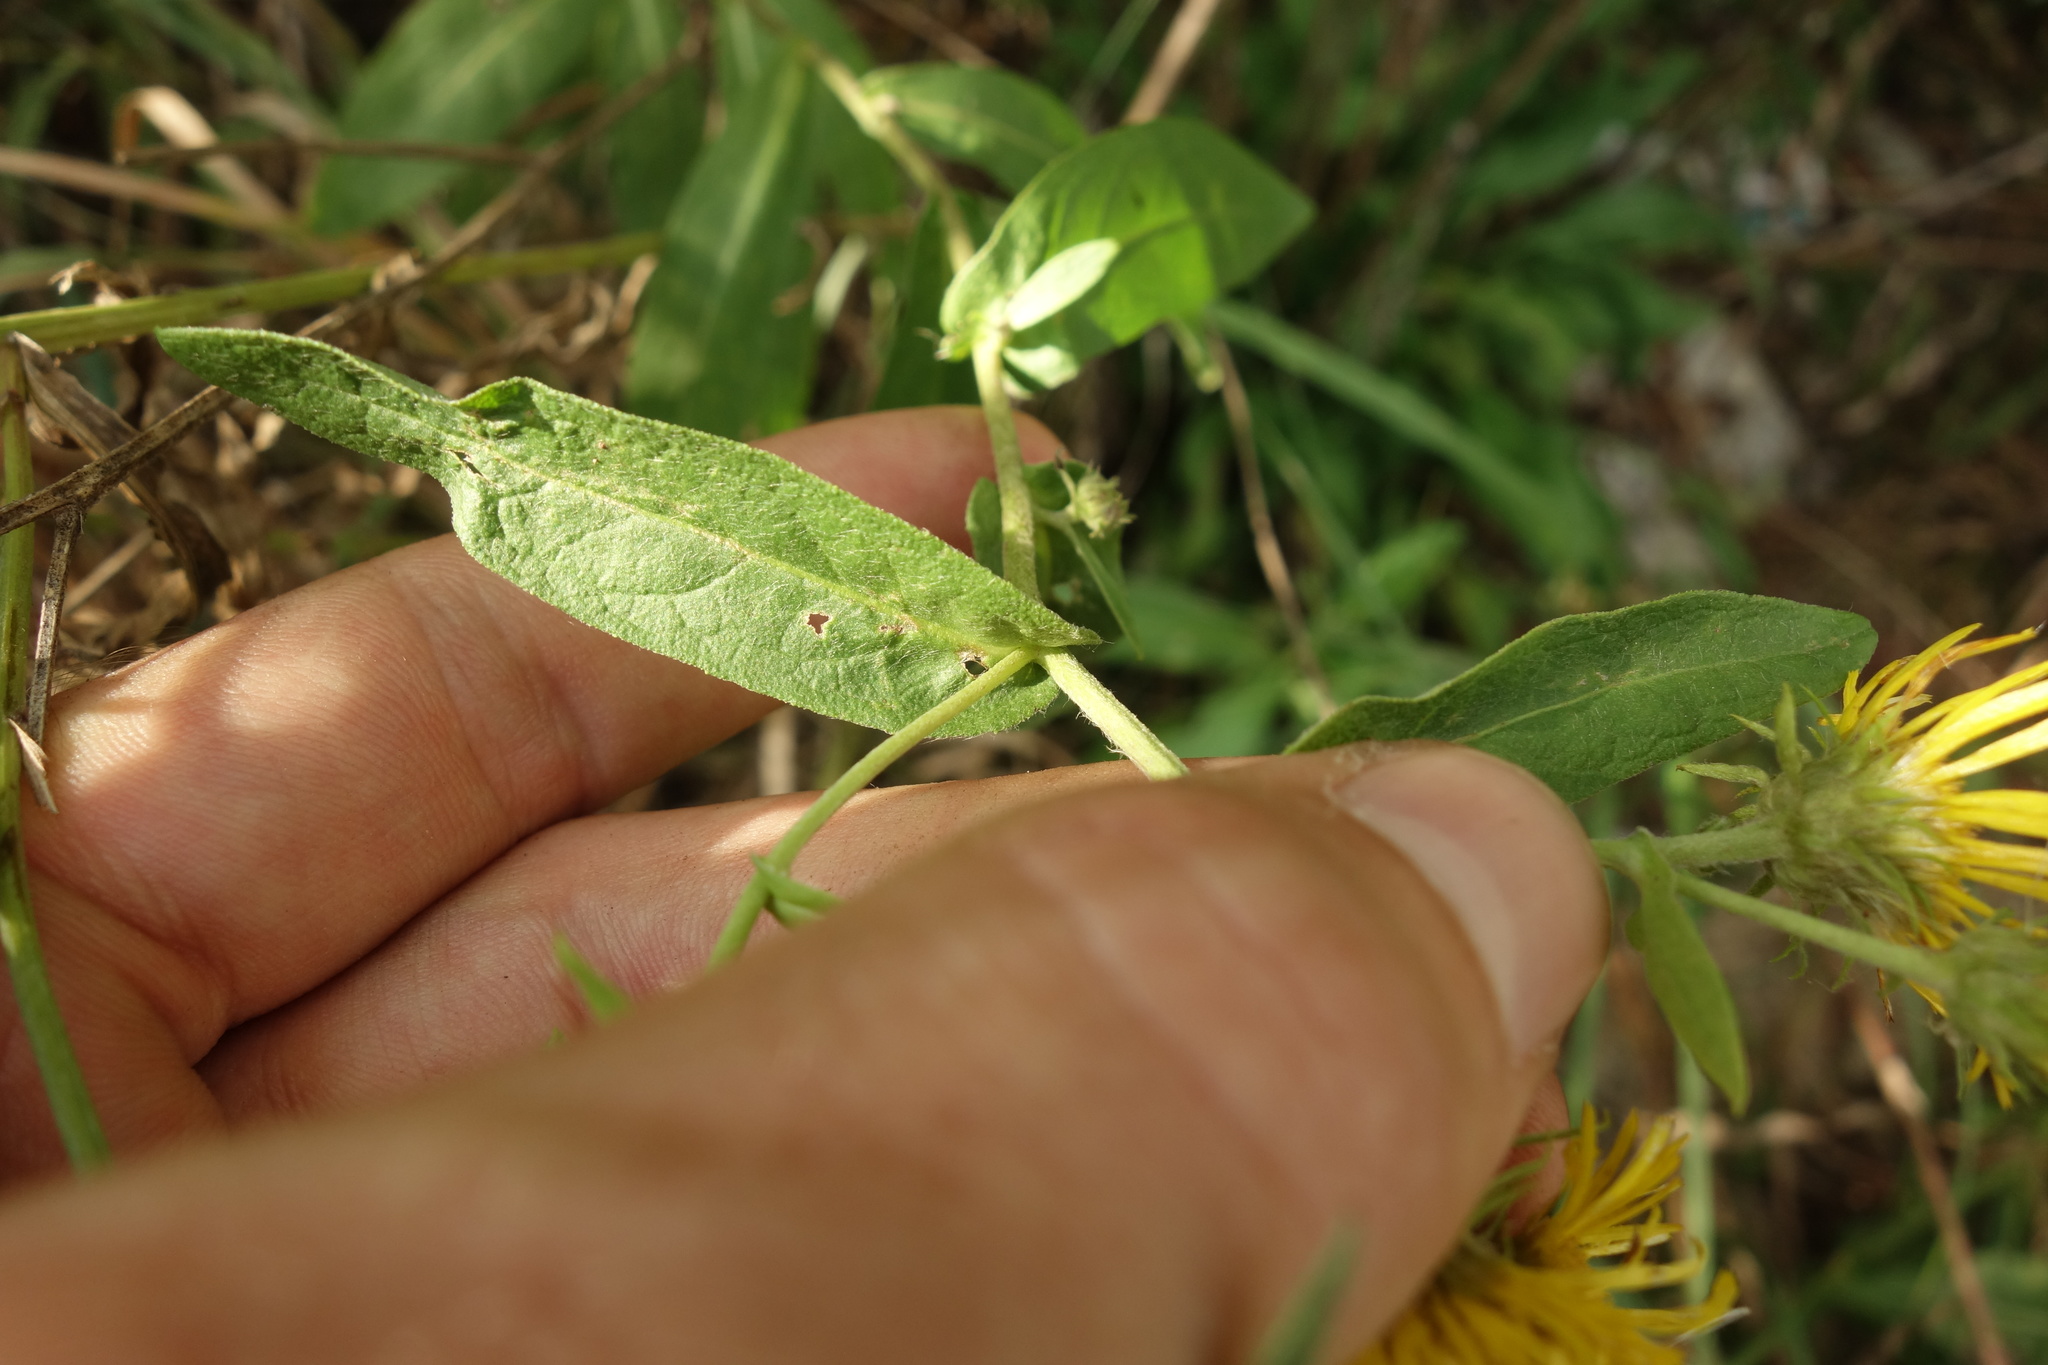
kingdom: Plantae
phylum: Tracheophyta
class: Magnoliopsida
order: Asterales
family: Asteraceae
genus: Pentanema
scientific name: Pentanema britannicum
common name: British elecampane
